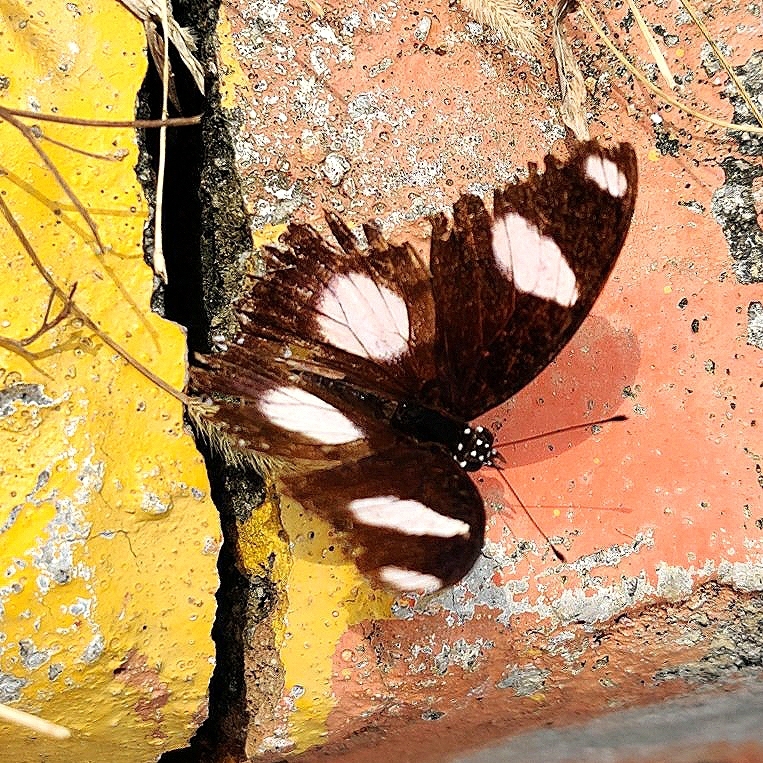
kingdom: Animalia
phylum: Arthropoda
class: Insecta
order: Lepidoptera
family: Nymphalidae
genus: Hypolimnas
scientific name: Hypolimnas misippus
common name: False plain tiger
